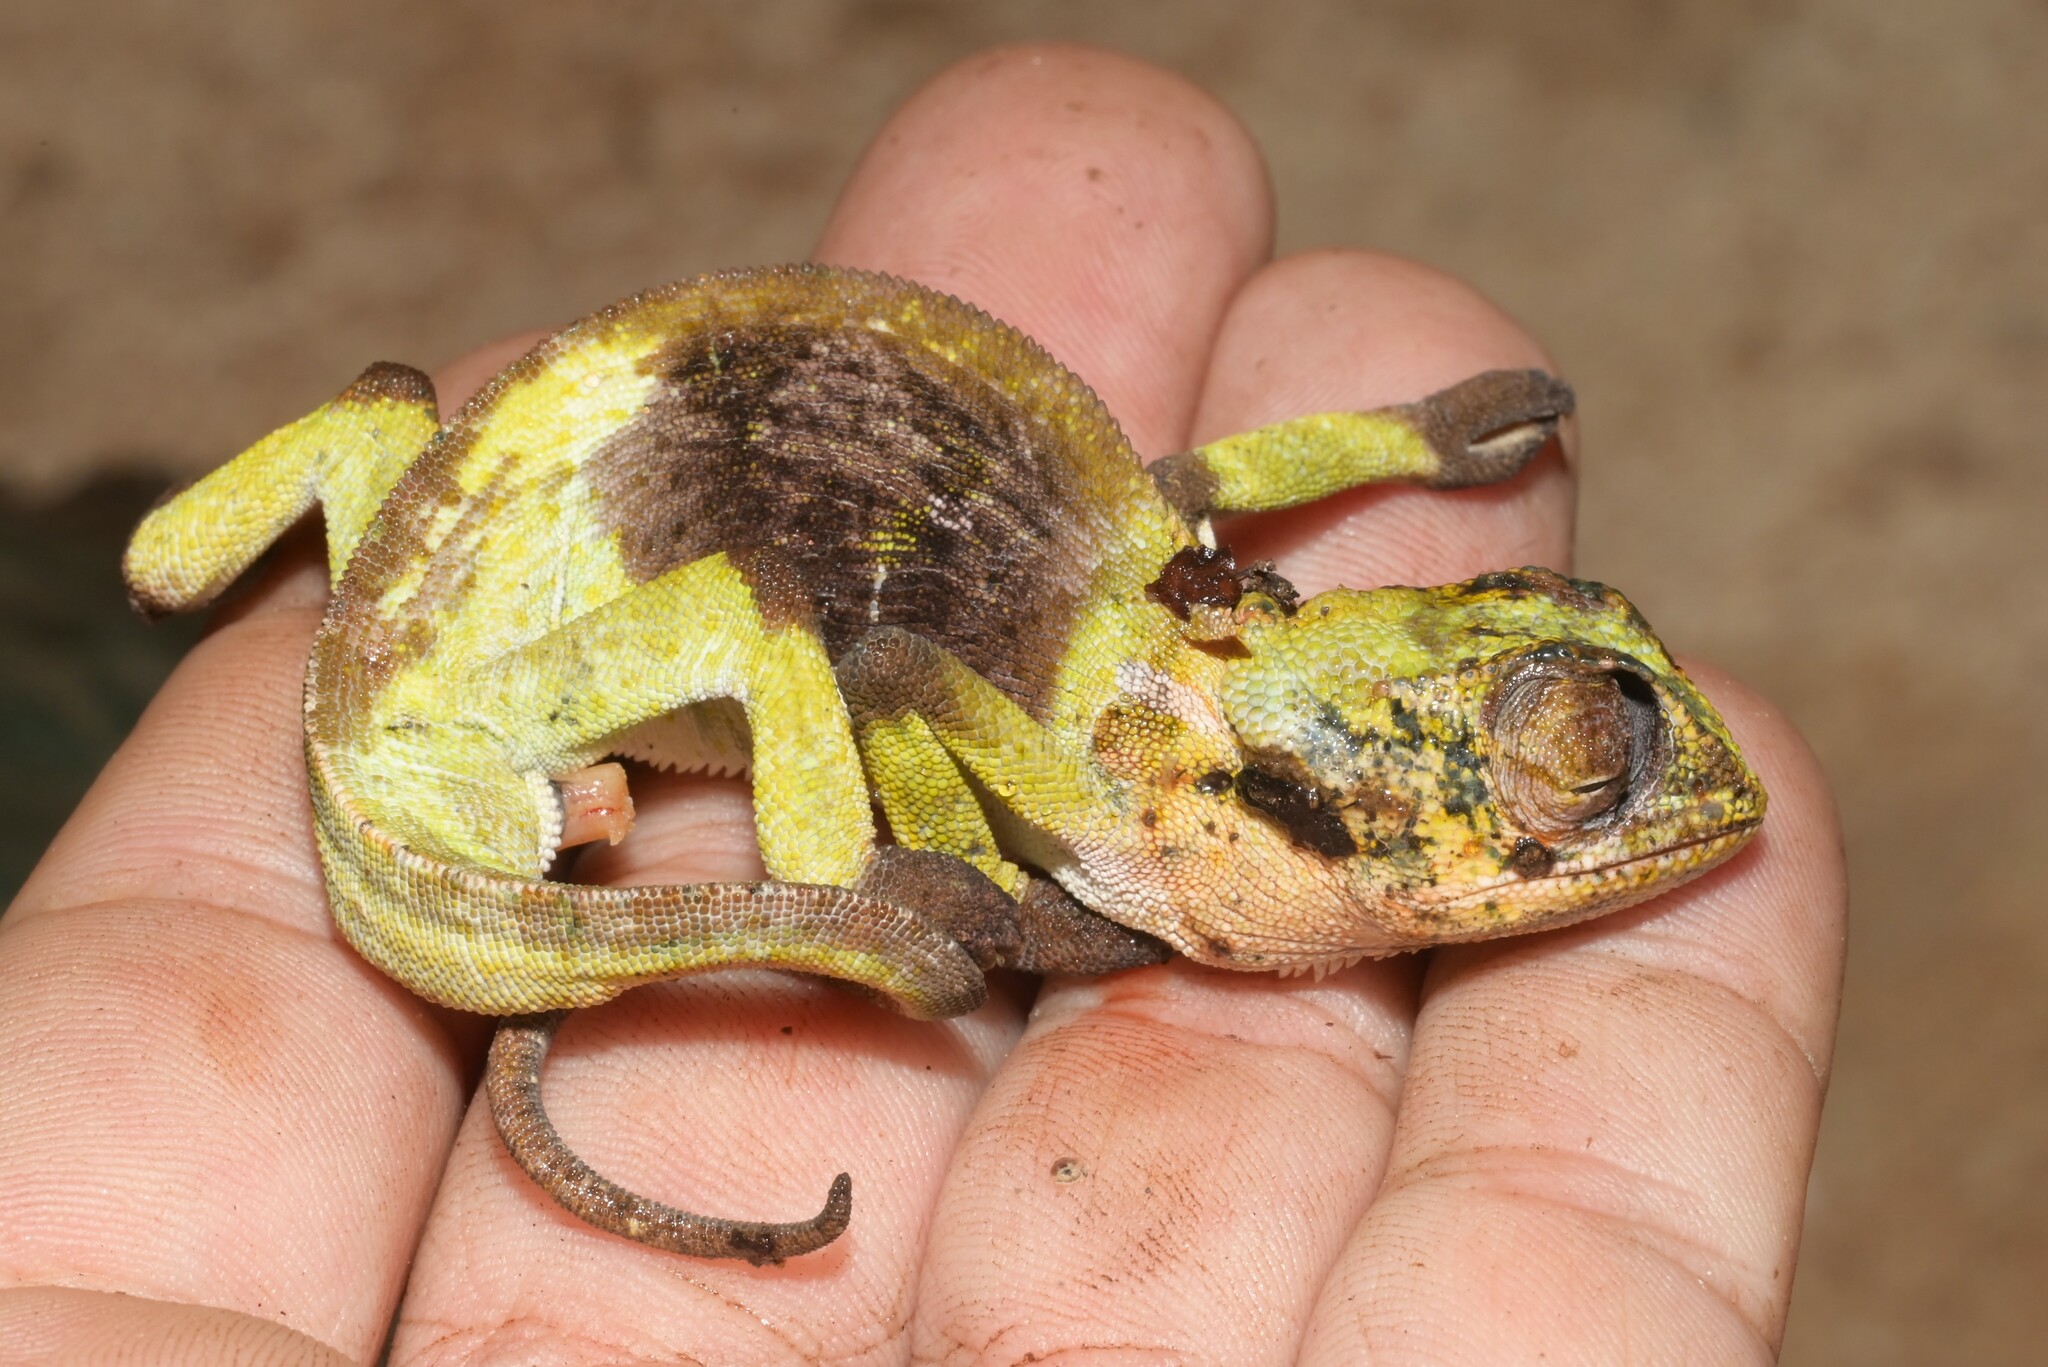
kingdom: Animalia
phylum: Chordata
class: Squamata
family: Chamaeleonidae
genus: Chamaeleo
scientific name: Chamaeleo dilepis
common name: Flapneck chameleon
